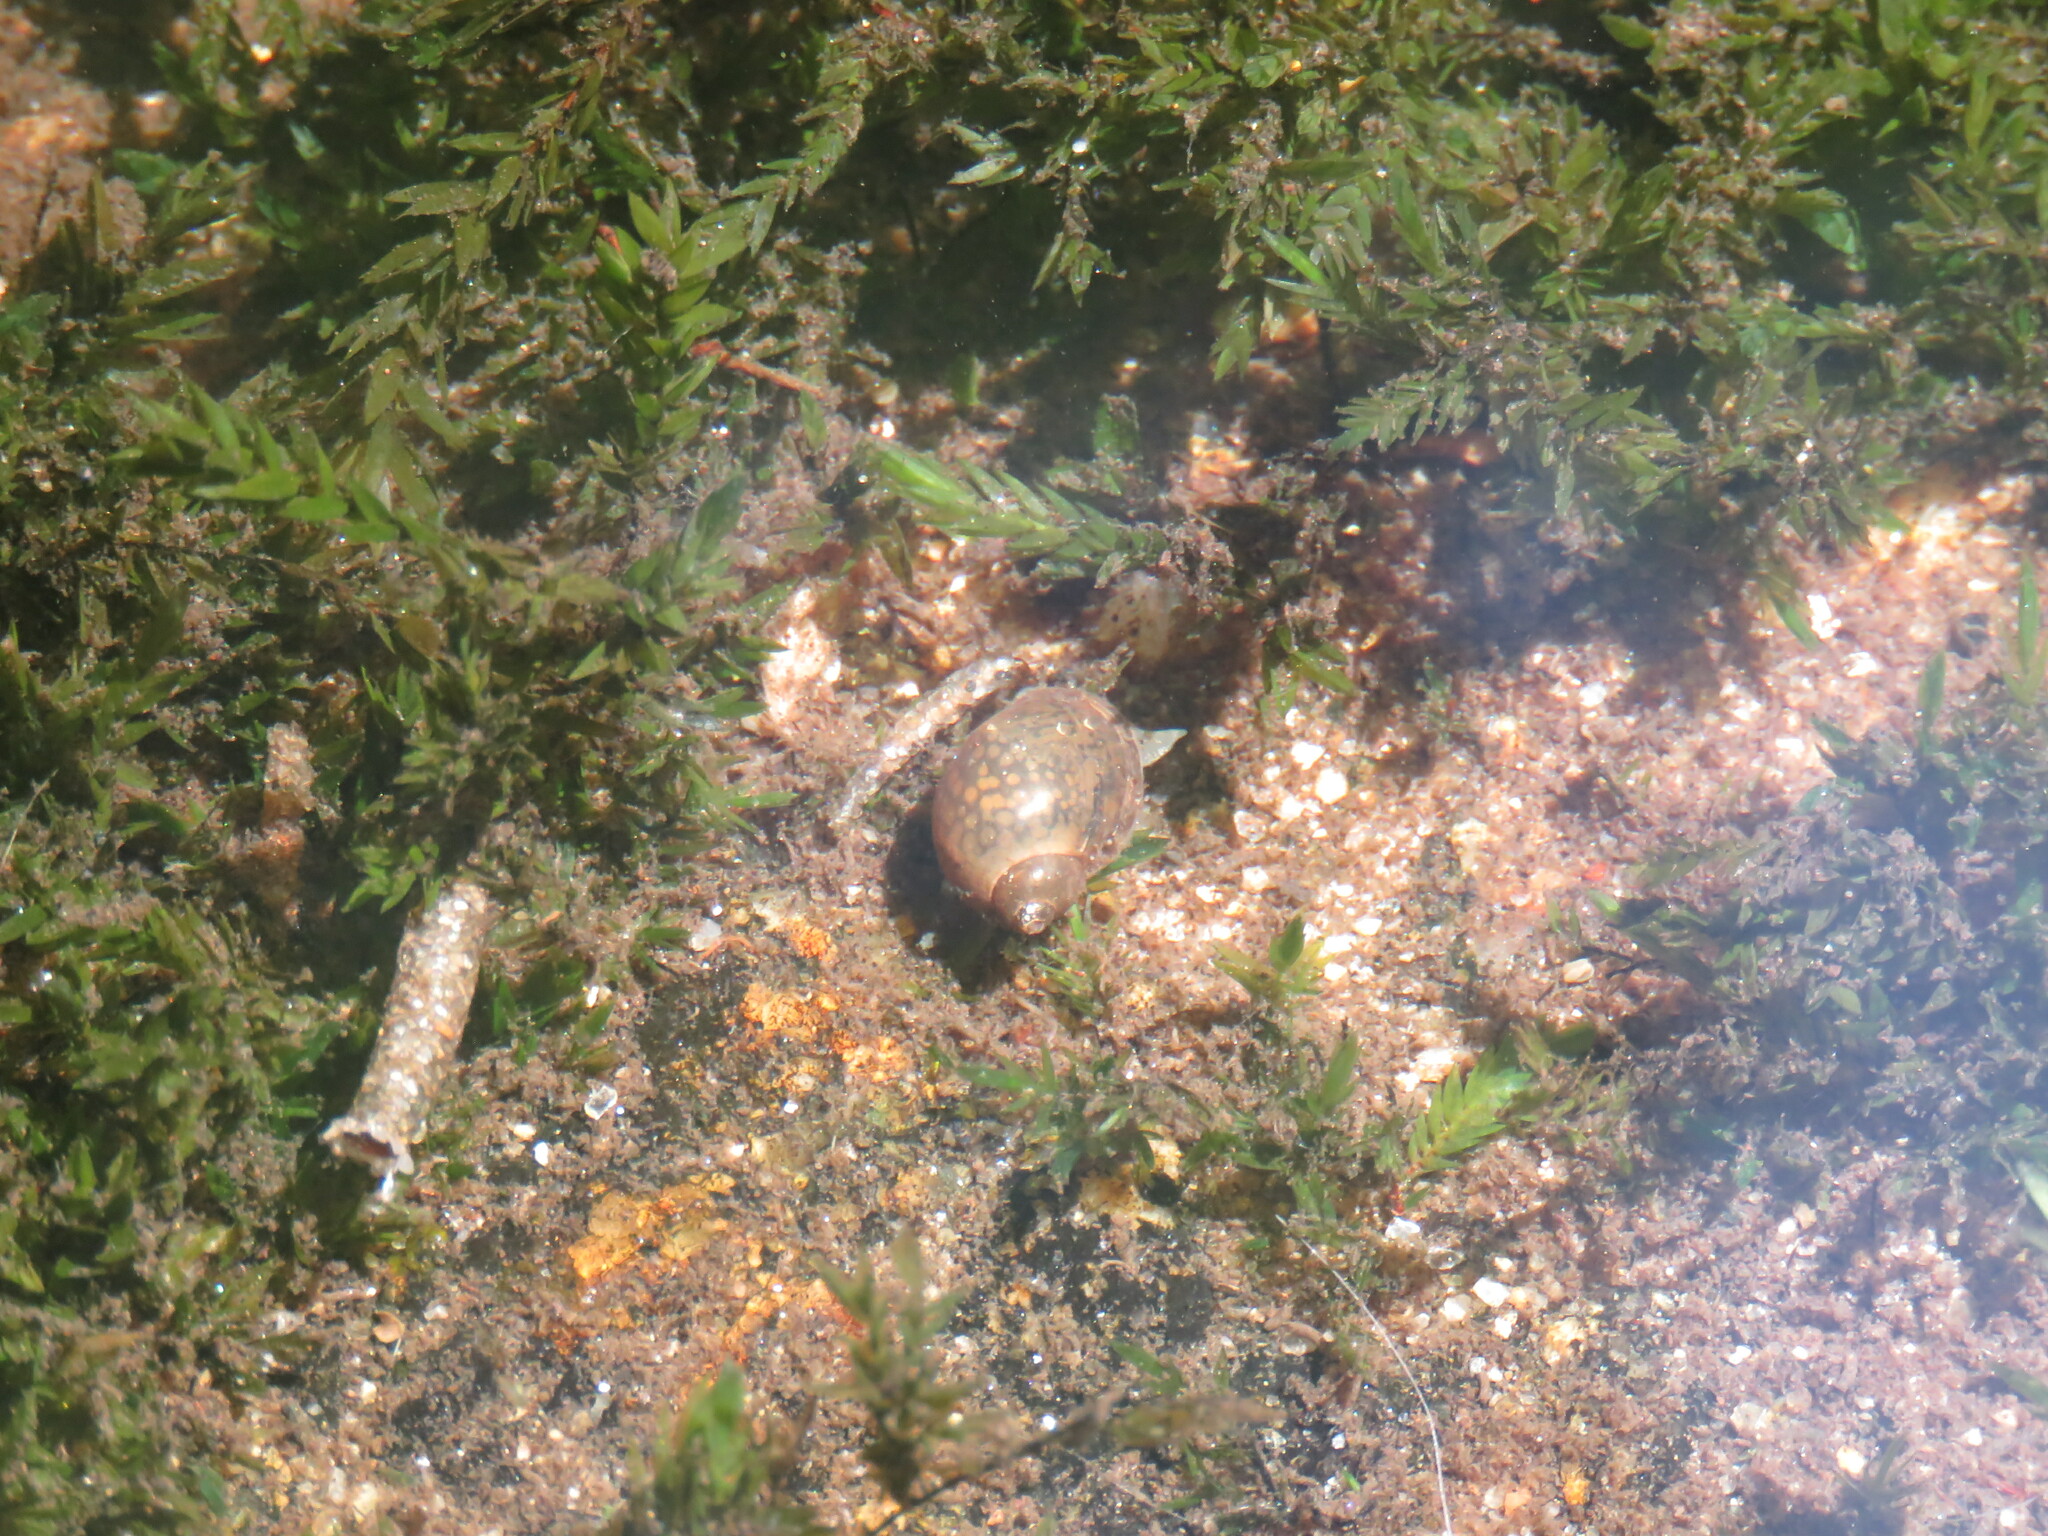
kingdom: Animalia
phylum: Mollusca
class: Gastropoda
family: Lymnaeidae
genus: Ampullaceana
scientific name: Ampullaceana balthica
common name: Wandering pond snail
